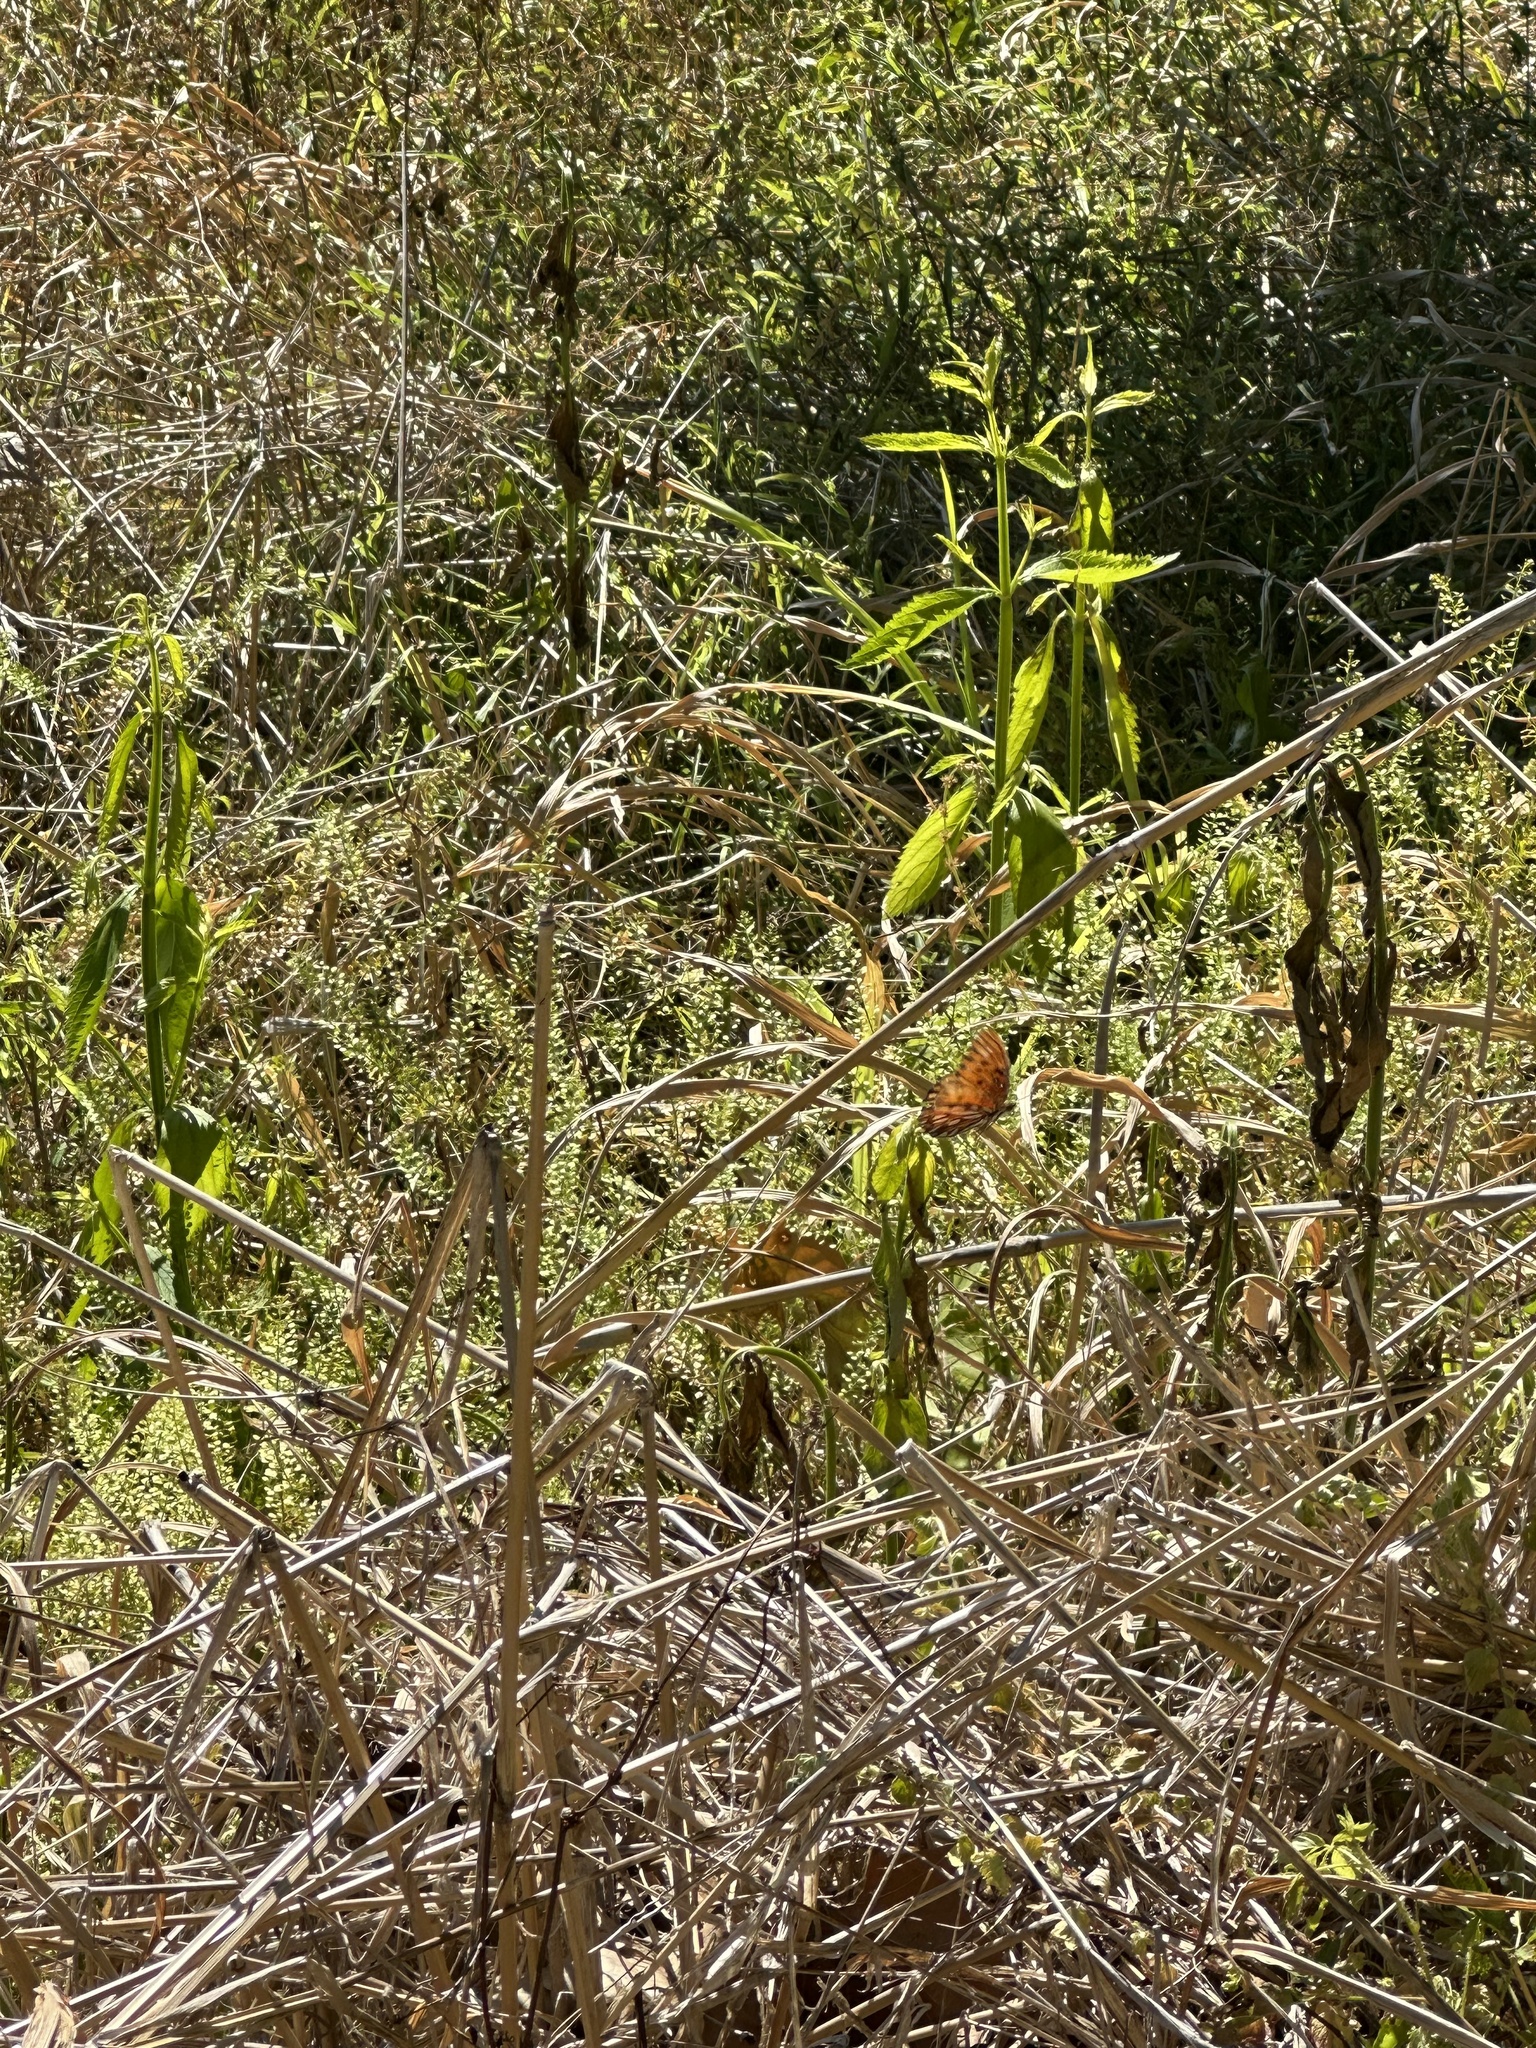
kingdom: Animalia
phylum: Arthropoda
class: Insecta
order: Lepidoptera
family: Nymphalidae
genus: Dione
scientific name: Dione vanillae
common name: Gulf fritillary
